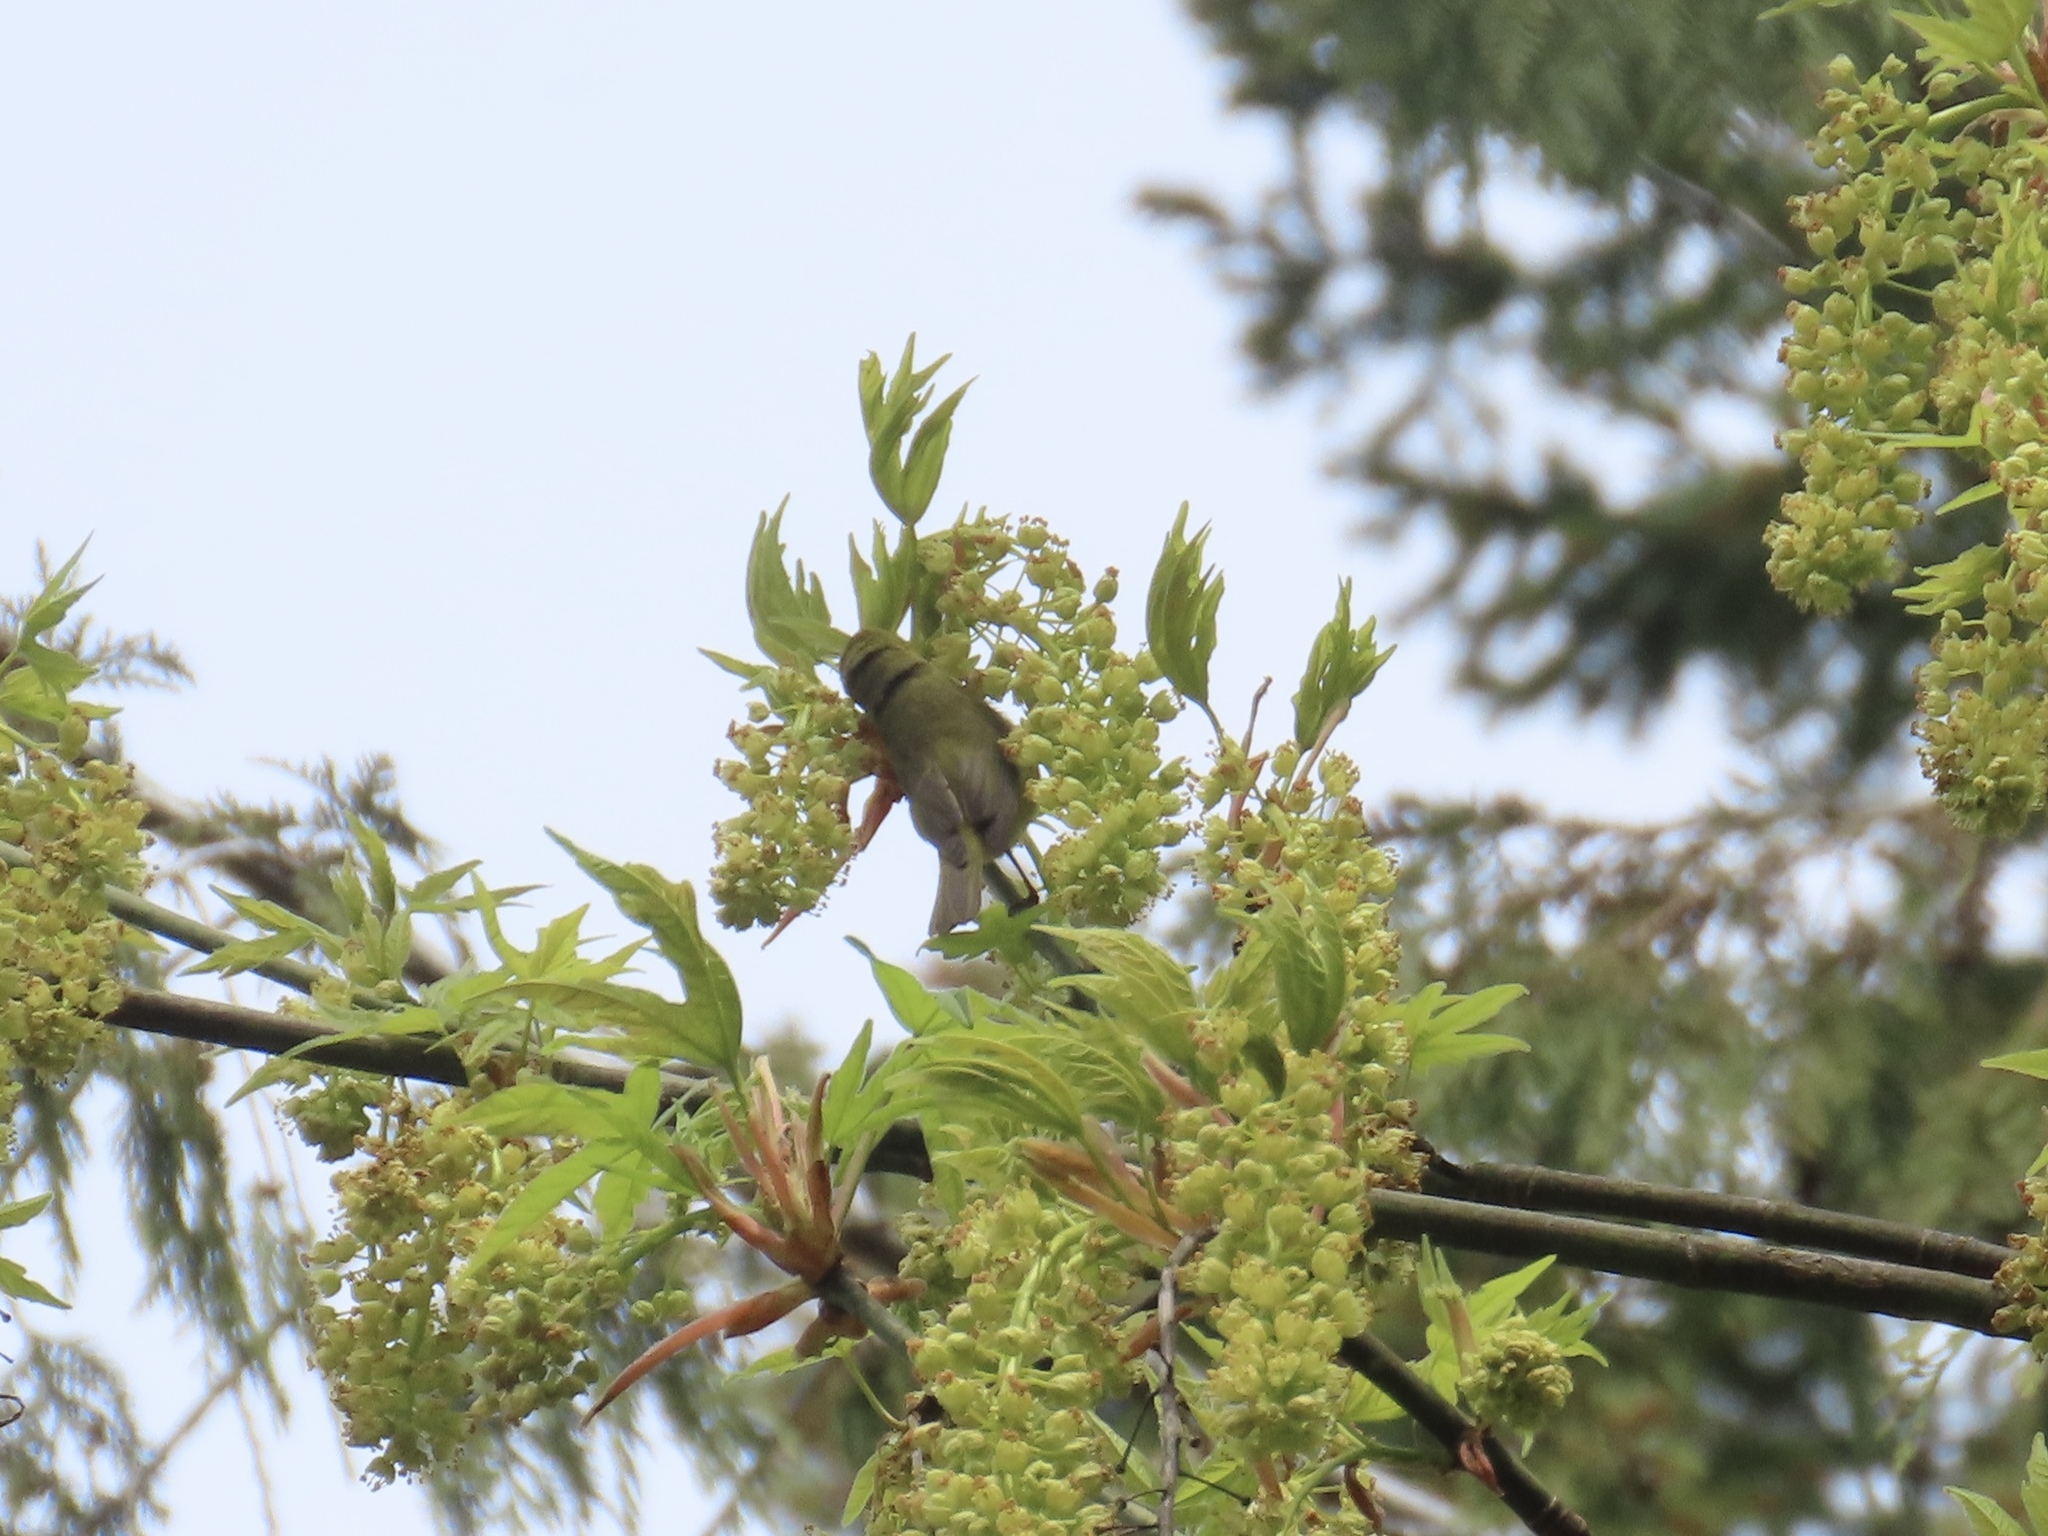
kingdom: Animalia
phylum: Chordata
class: Aves
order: Passeriformes
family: Parulidae
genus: Leiothlypis
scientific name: Leiothlypis celata
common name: Orange-crowned warbler
